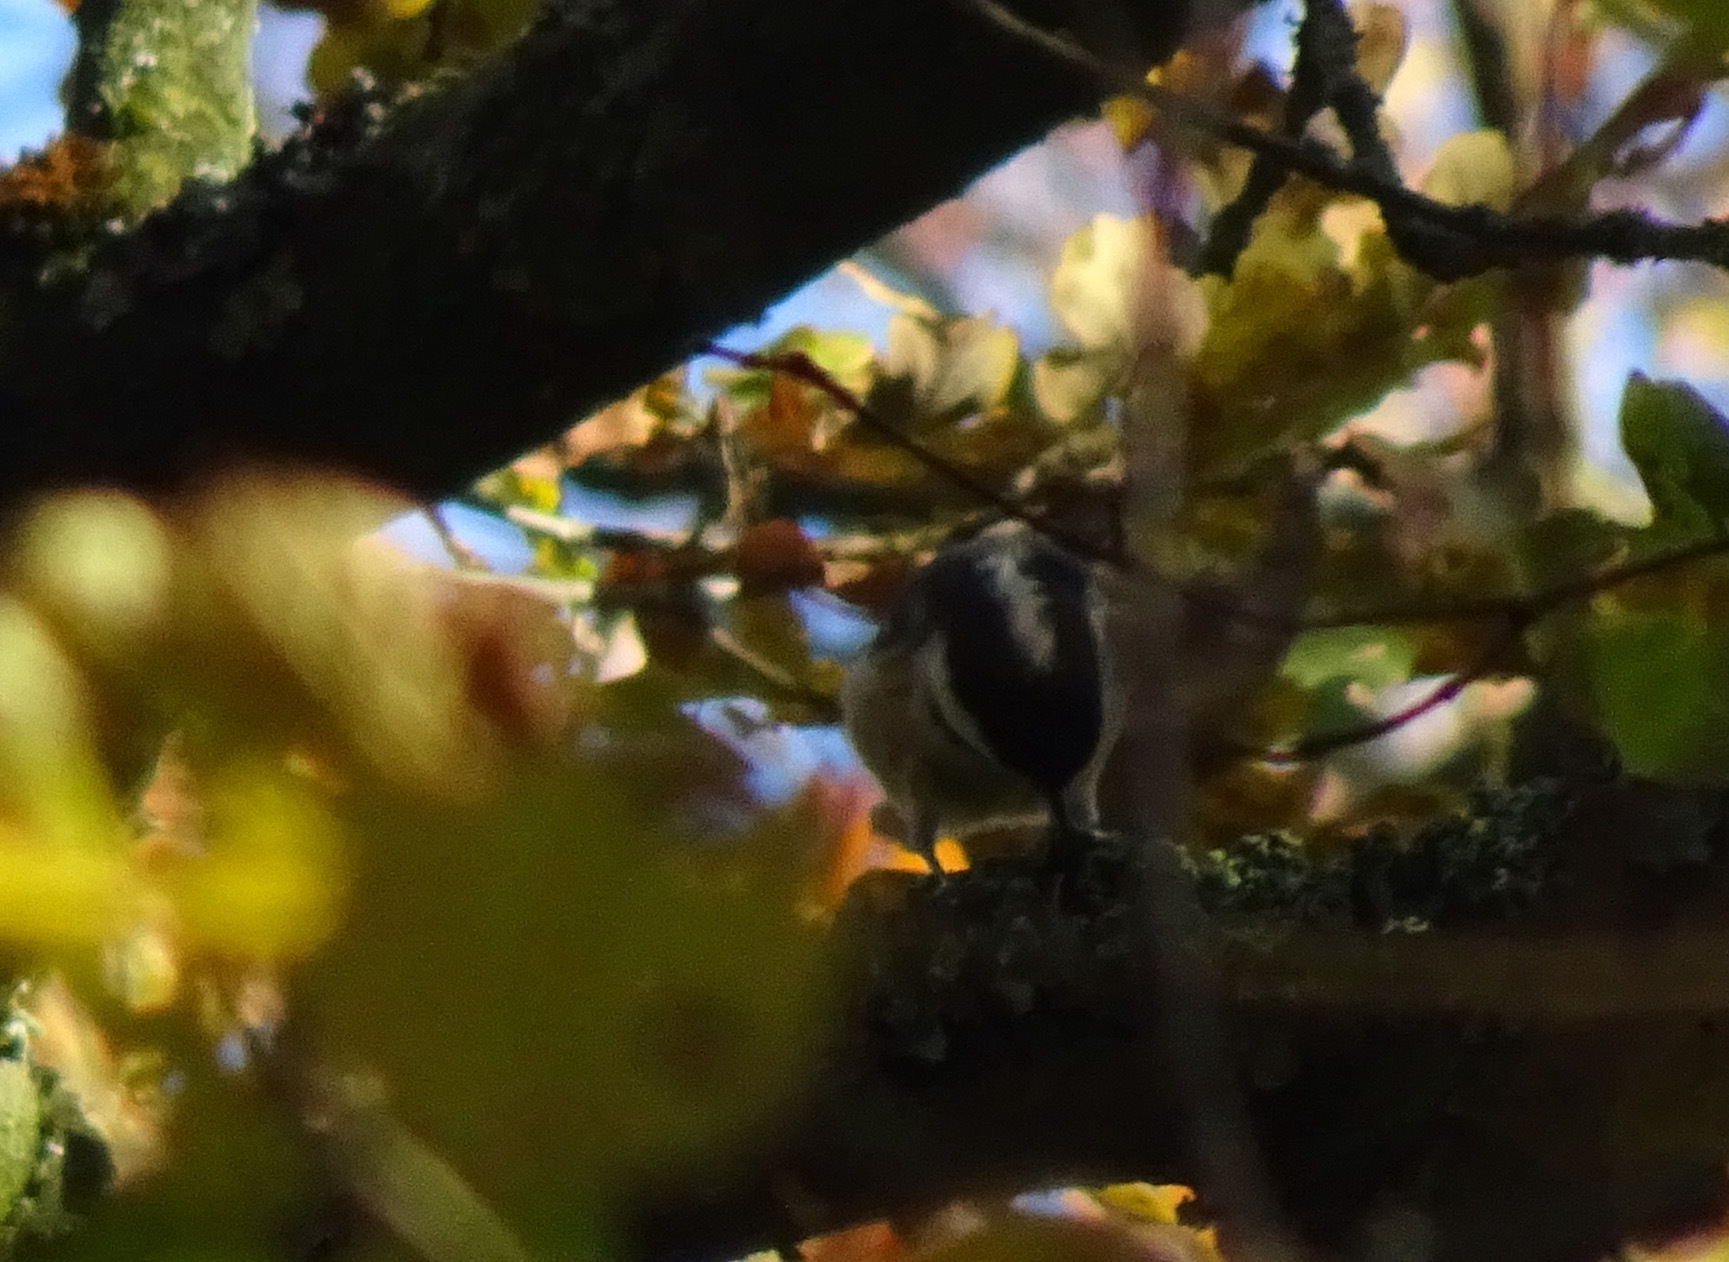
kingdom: Animalia
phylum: Chordata
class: Aves
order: Passeriformes
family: Paridae
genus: Periparus
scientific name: Periparus ater
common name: Coal tit
